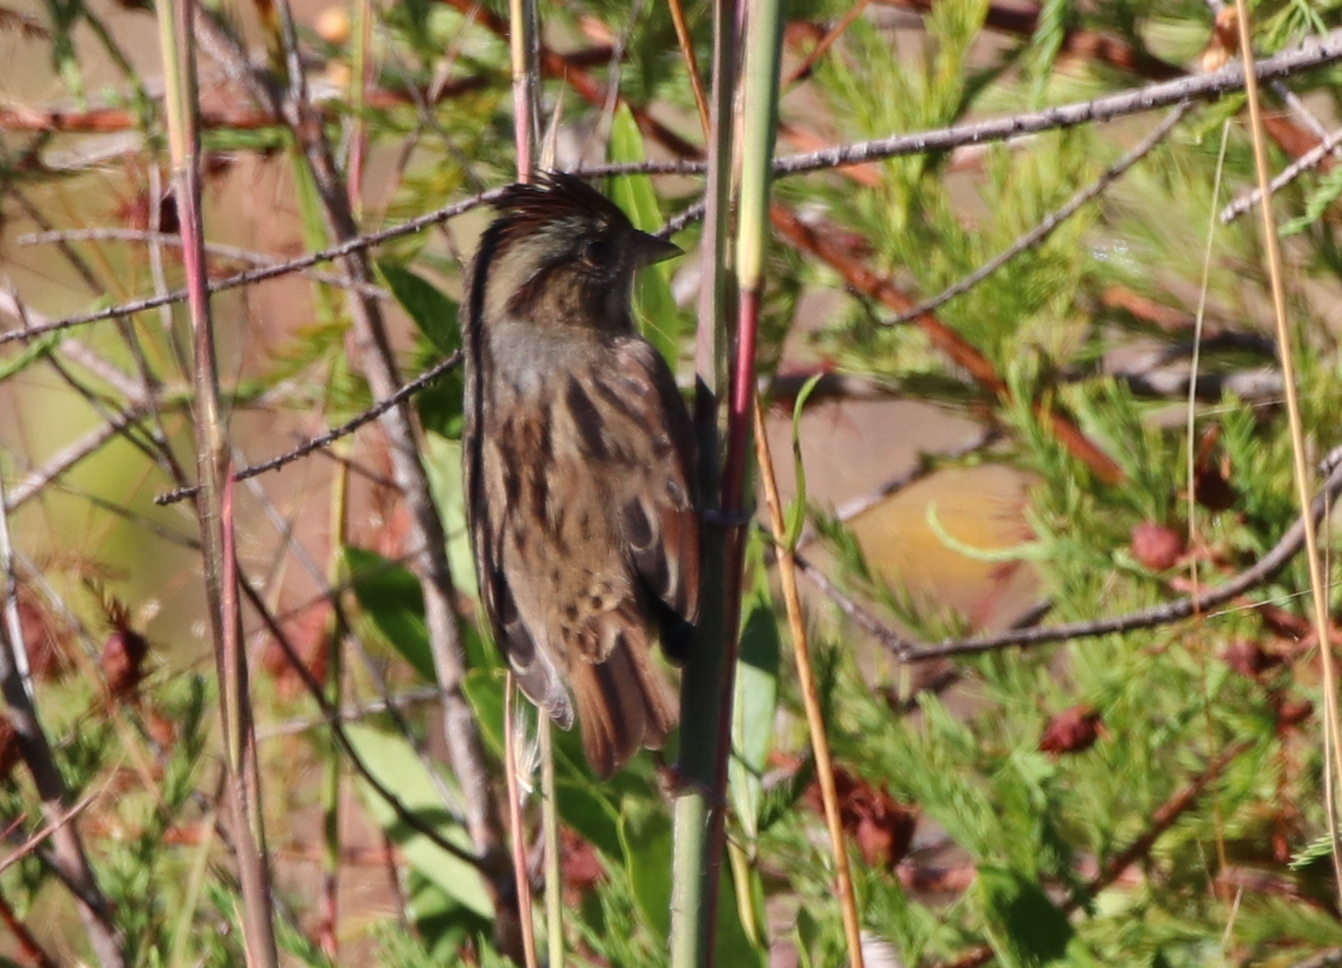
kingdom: Animalia
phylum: Chordata
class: Aves
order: Passeriformes
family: Passerellidae
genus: Melospiza
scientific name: Melospiza georgiana
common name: Swamp sparrow
